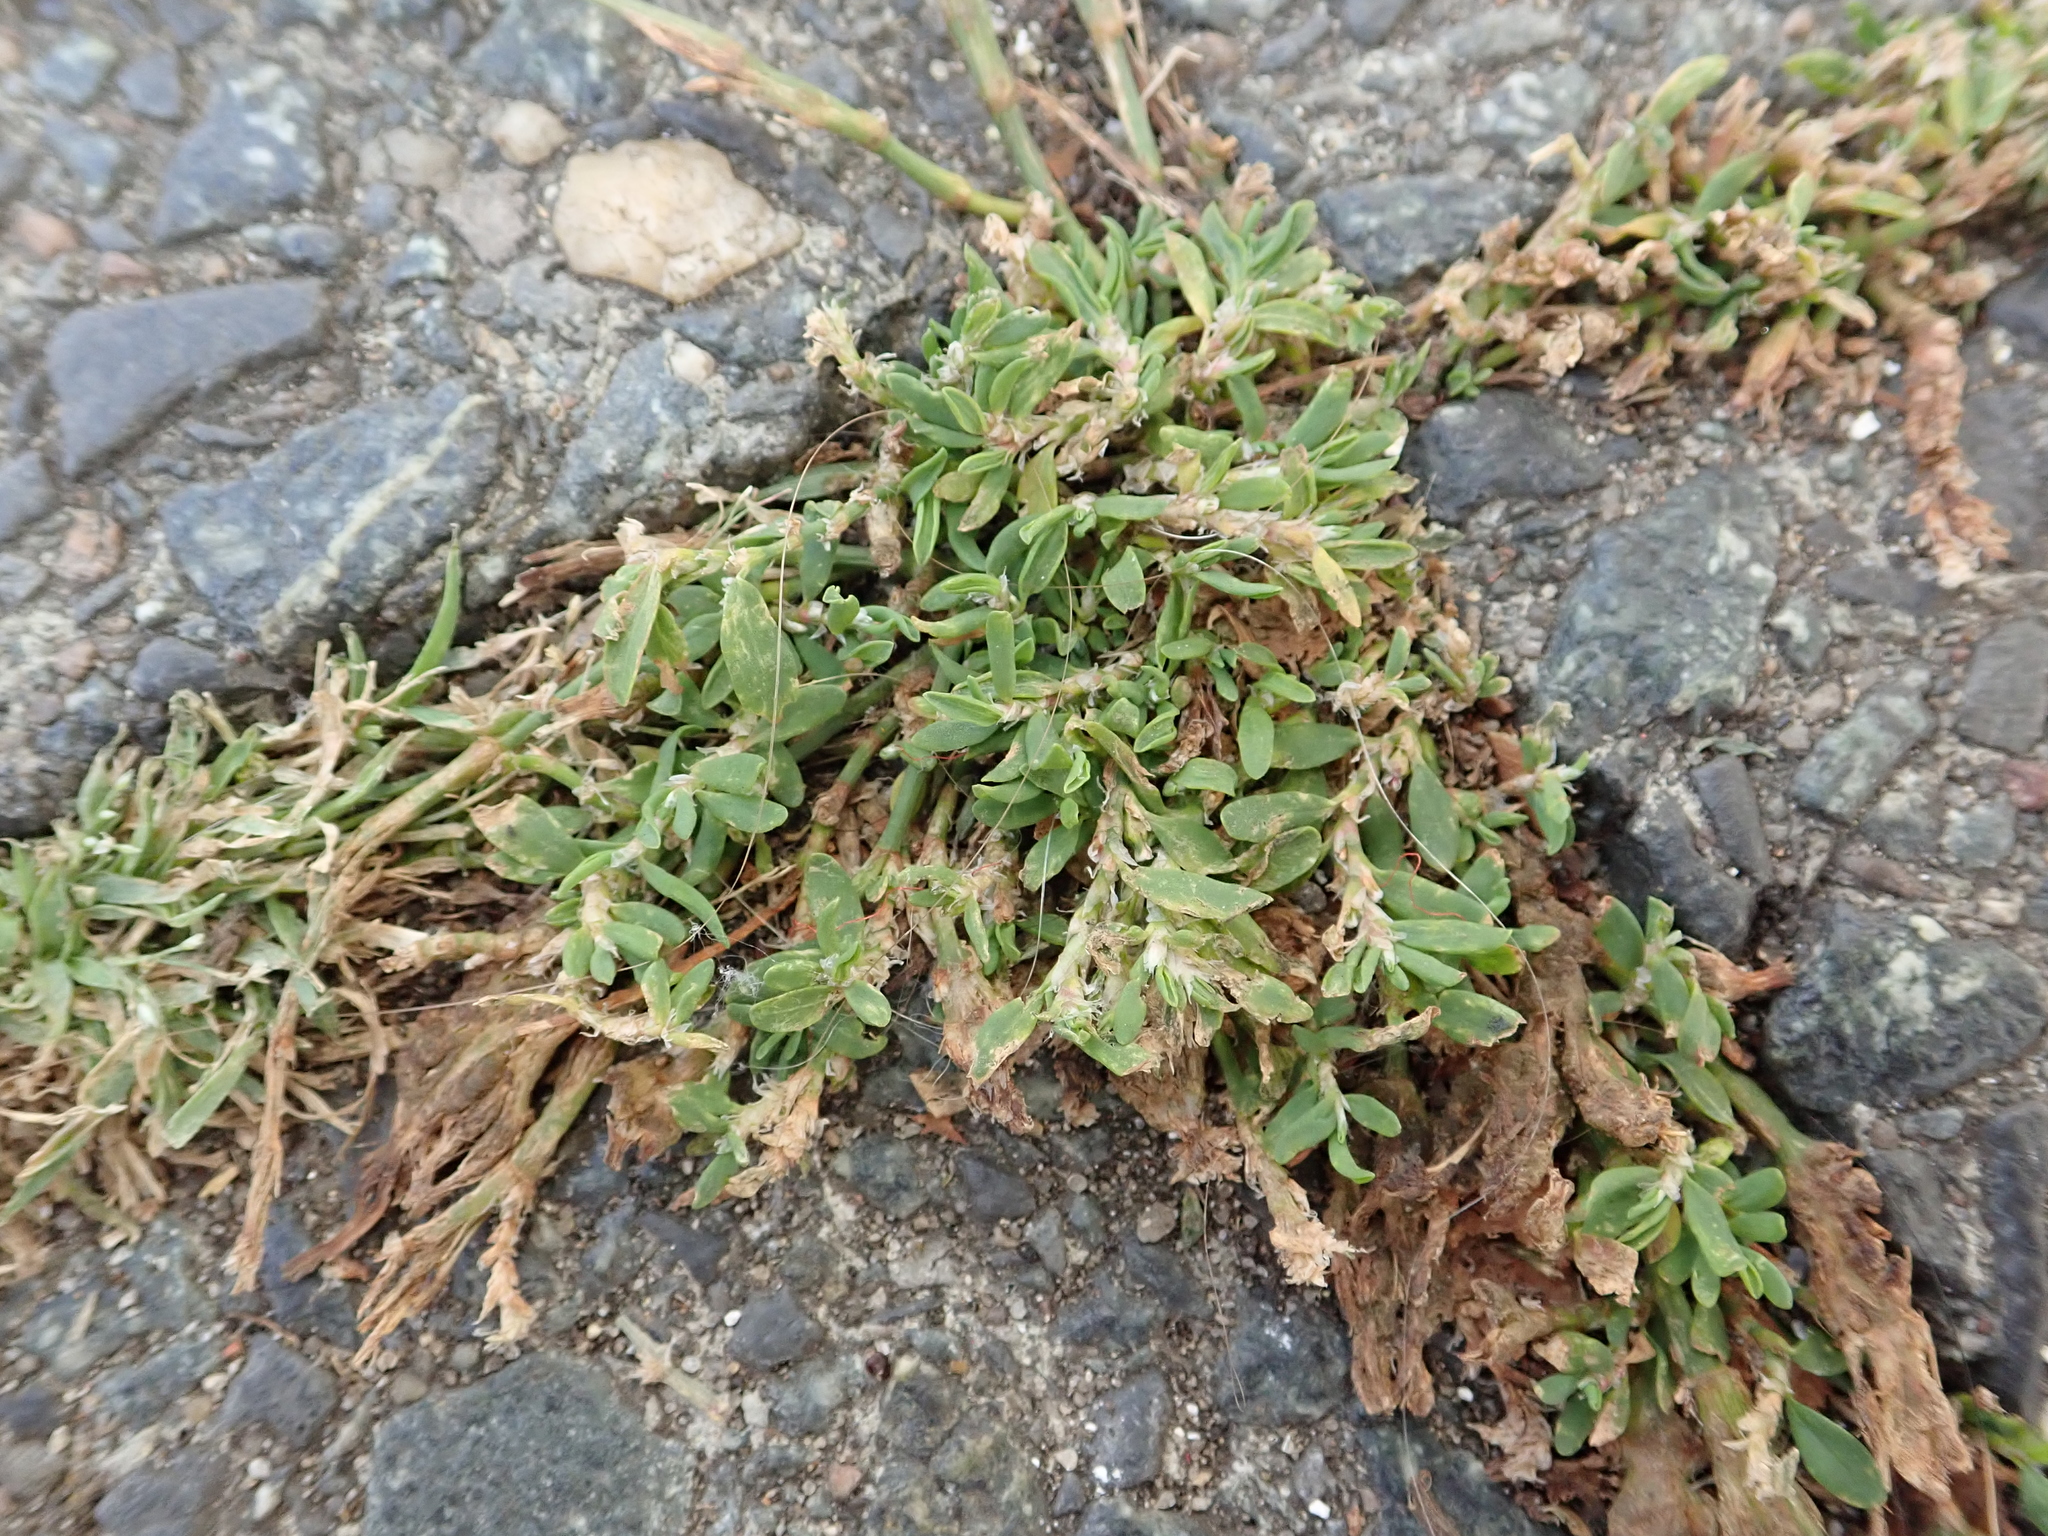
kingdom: Plantae
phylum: Tracheophyta
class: Magnoliopsida
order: Caryophyllales
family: Polygonaceae
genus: Polygonum
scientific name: Polygonum aviculare
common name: Prostrate knotweed
